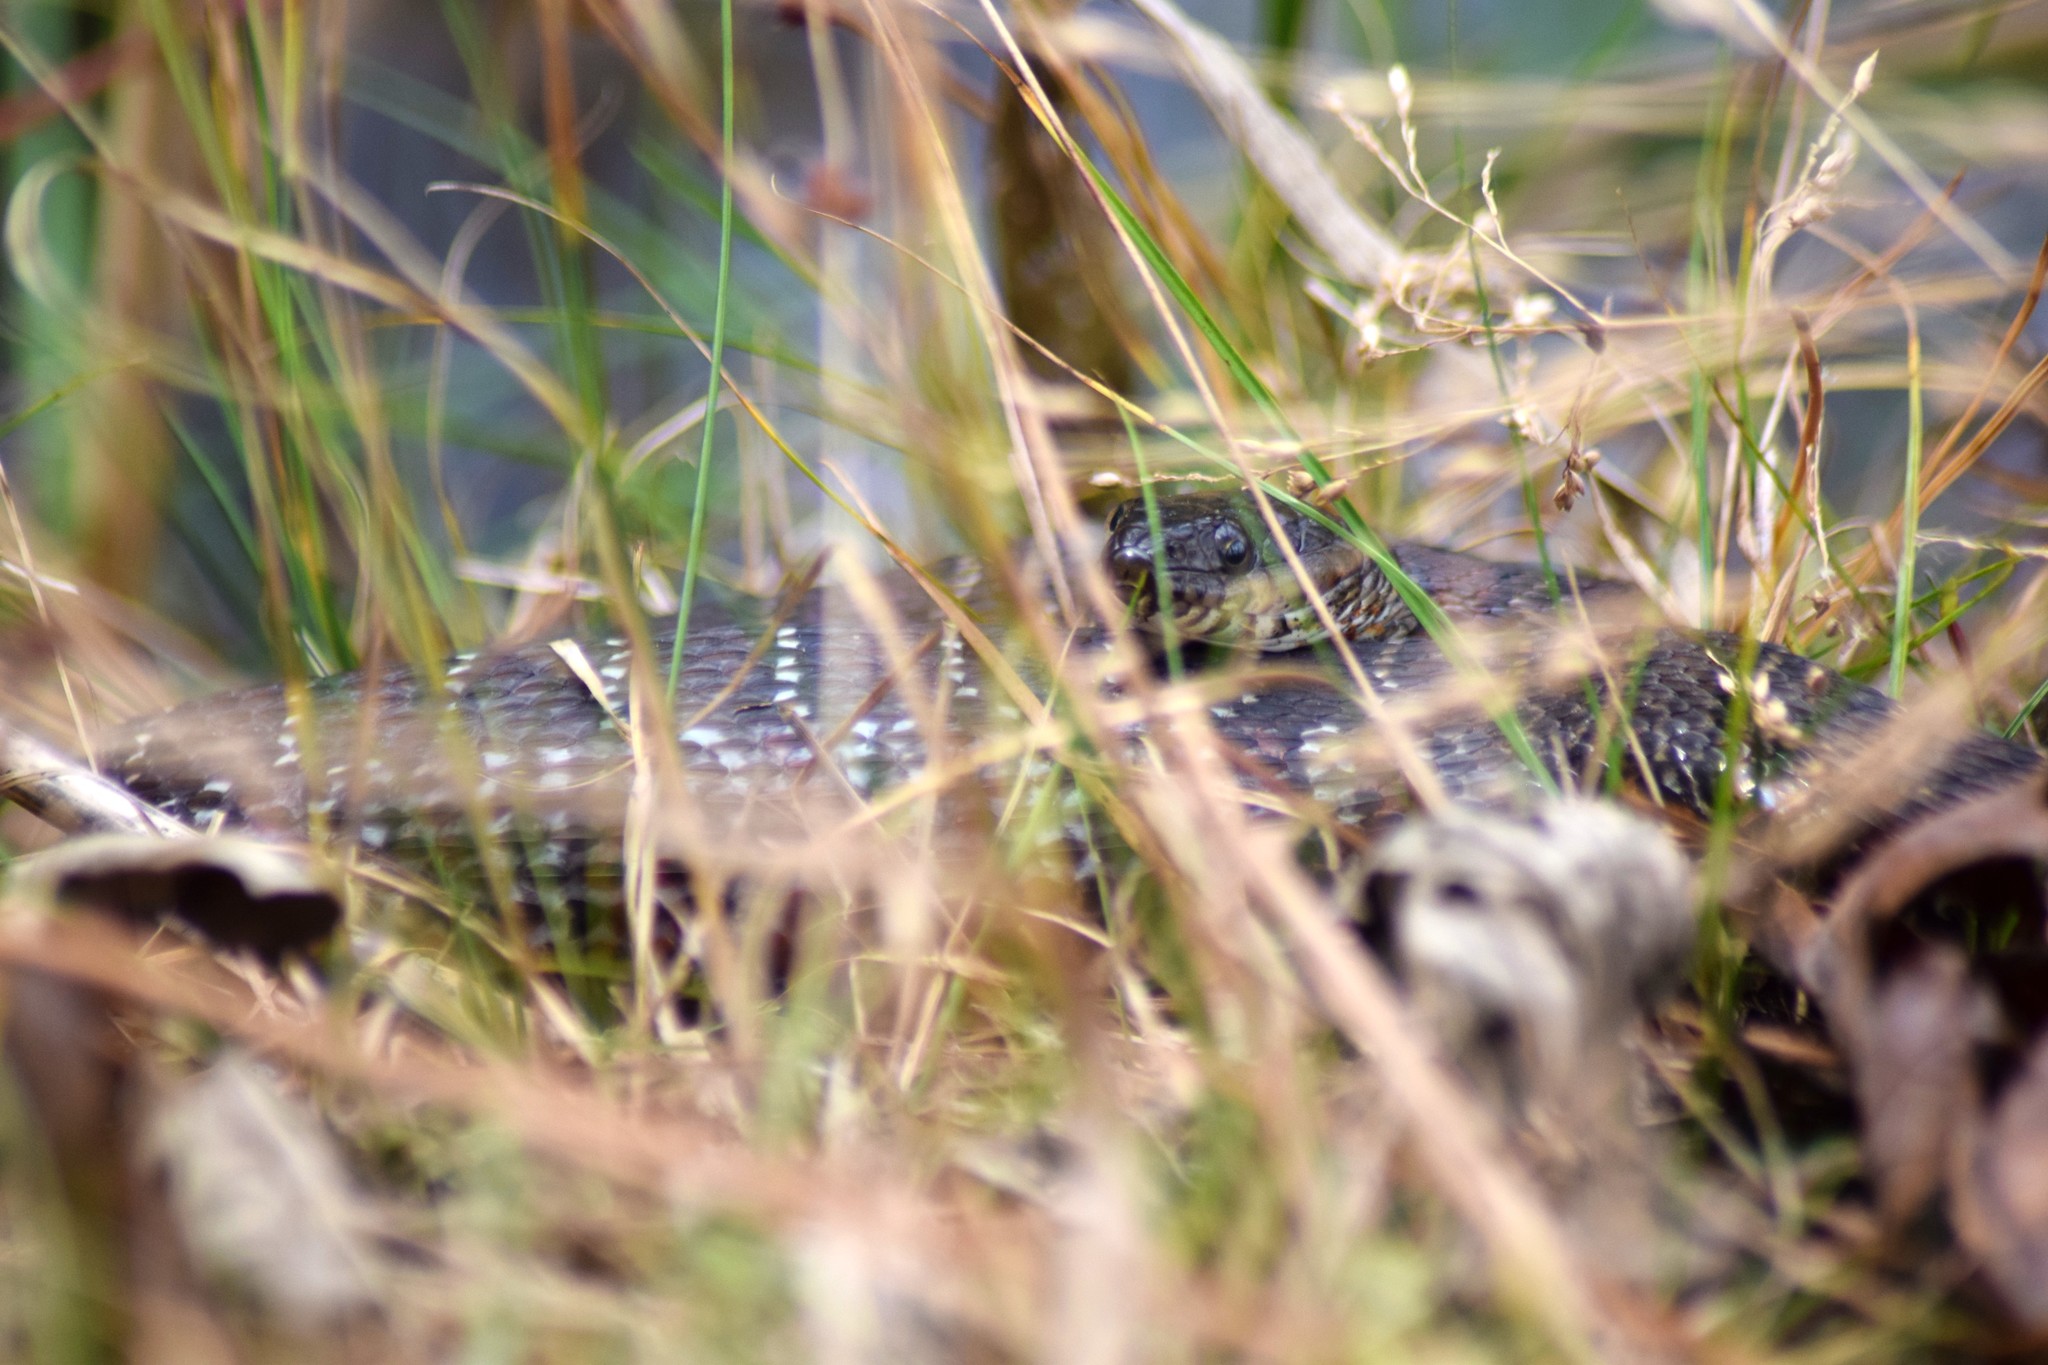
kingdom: Animalia
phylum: Chordata
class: Squamata
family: Colubridae
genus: Nerodia
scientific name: Nerodia sipedon
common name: Northern water snake
